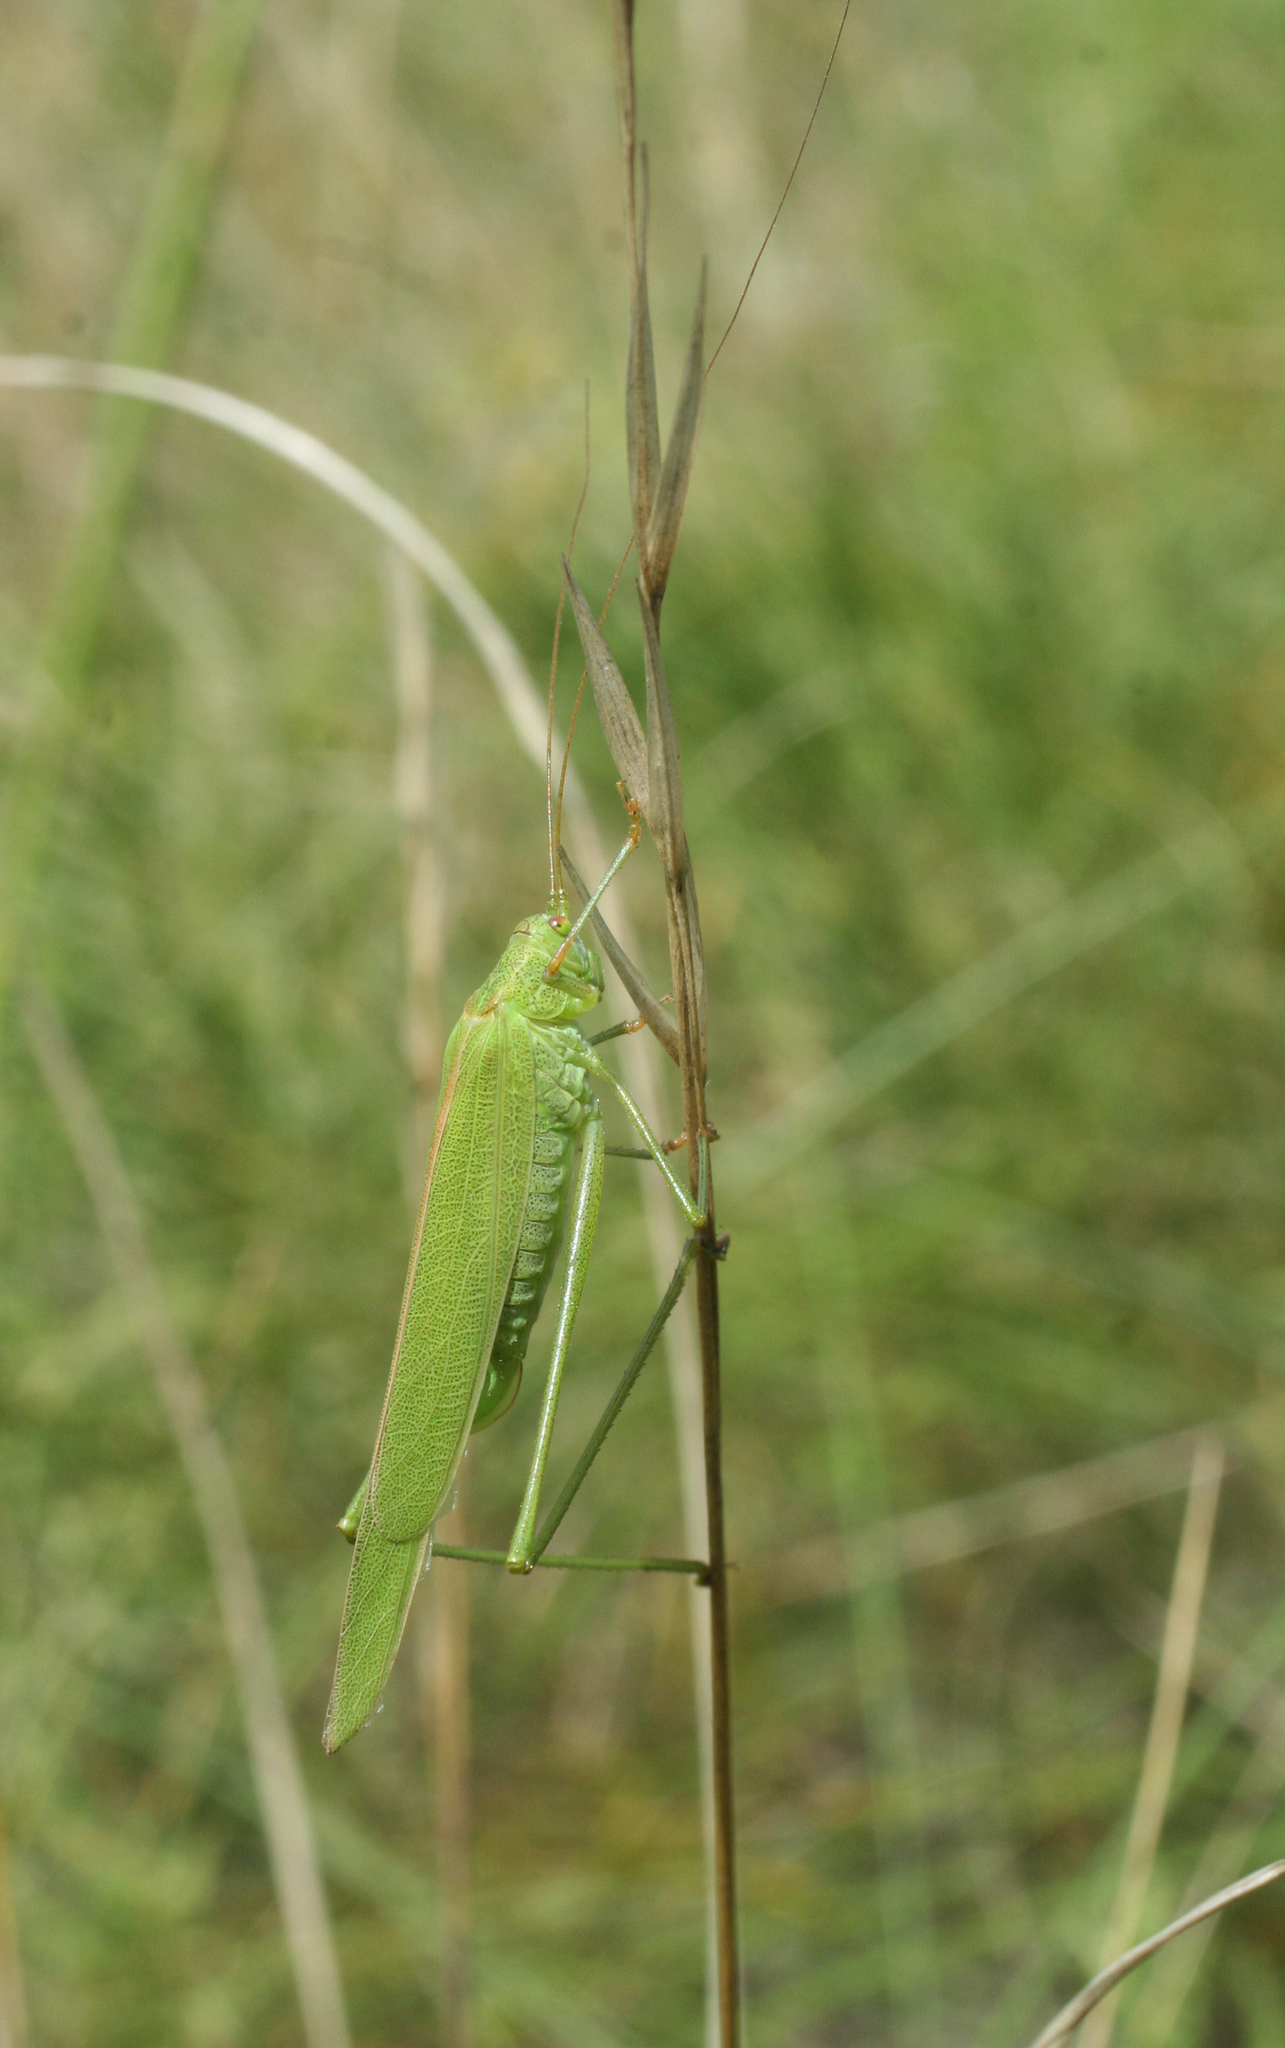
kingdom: Animalia
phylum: Arthropoda
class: Insecta
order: Orthoptera
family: Tettigoniidae
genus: Phaneroptera
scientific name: Phaneroptera falcata
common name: Sickle-bearing bush-cricket
